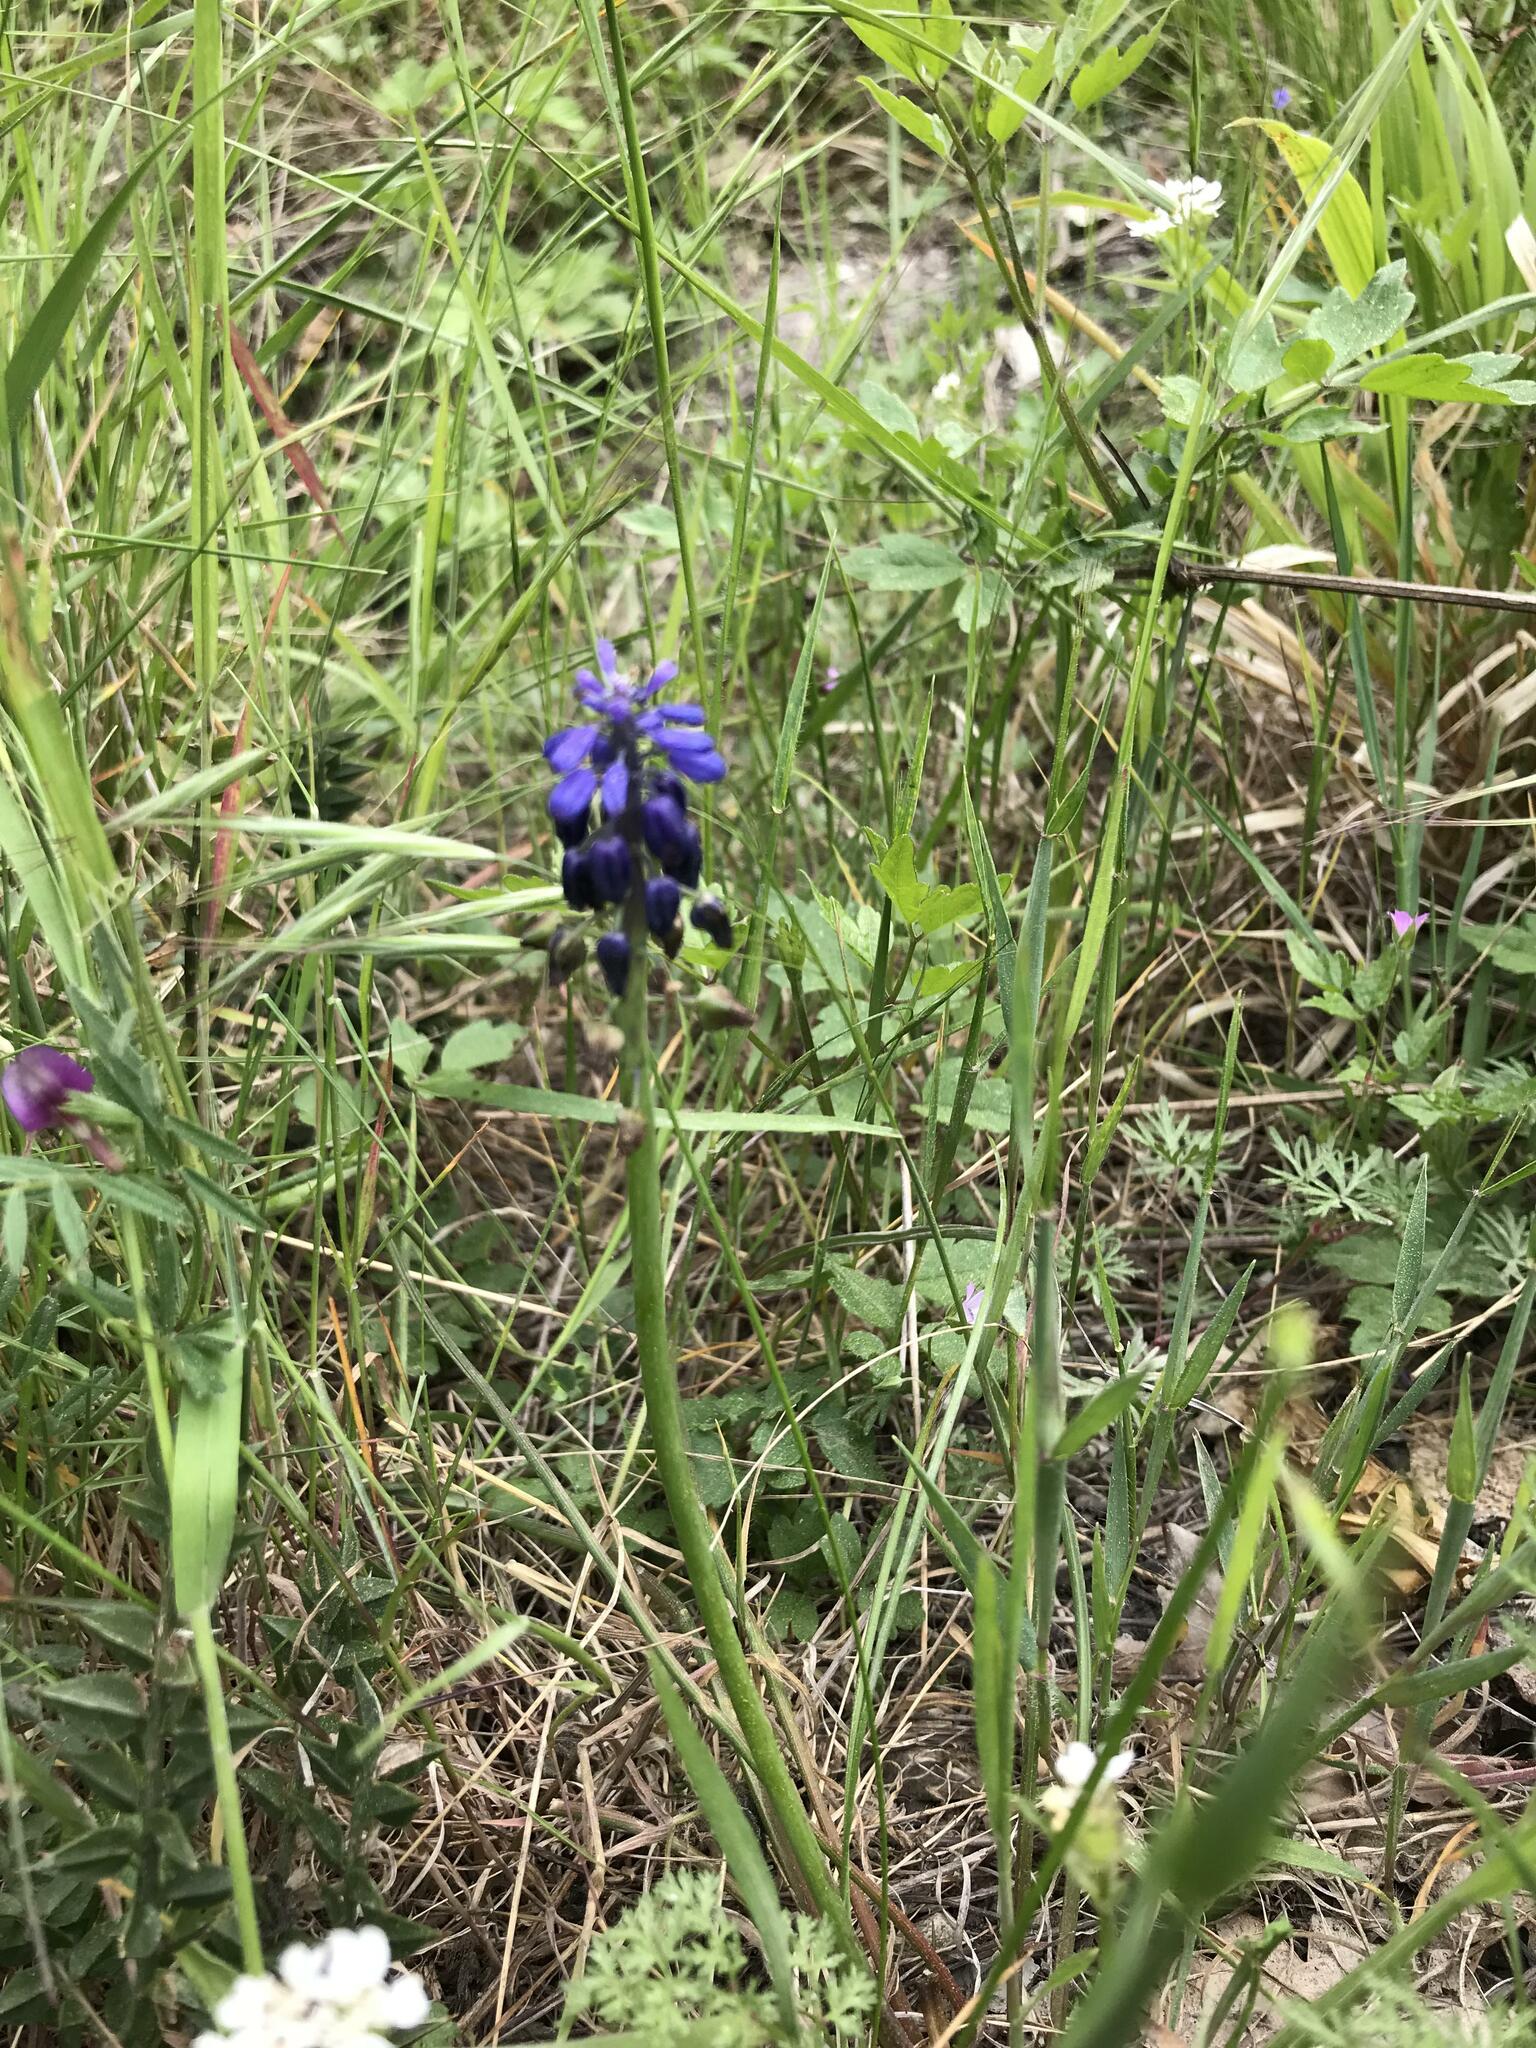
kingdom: Plantae
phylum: Tracheophyta
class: Liliopsida
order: Asparagales
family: Asparagaceae
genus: Muscari
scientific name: Muscari neglectum
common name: Grape-hyacinth
